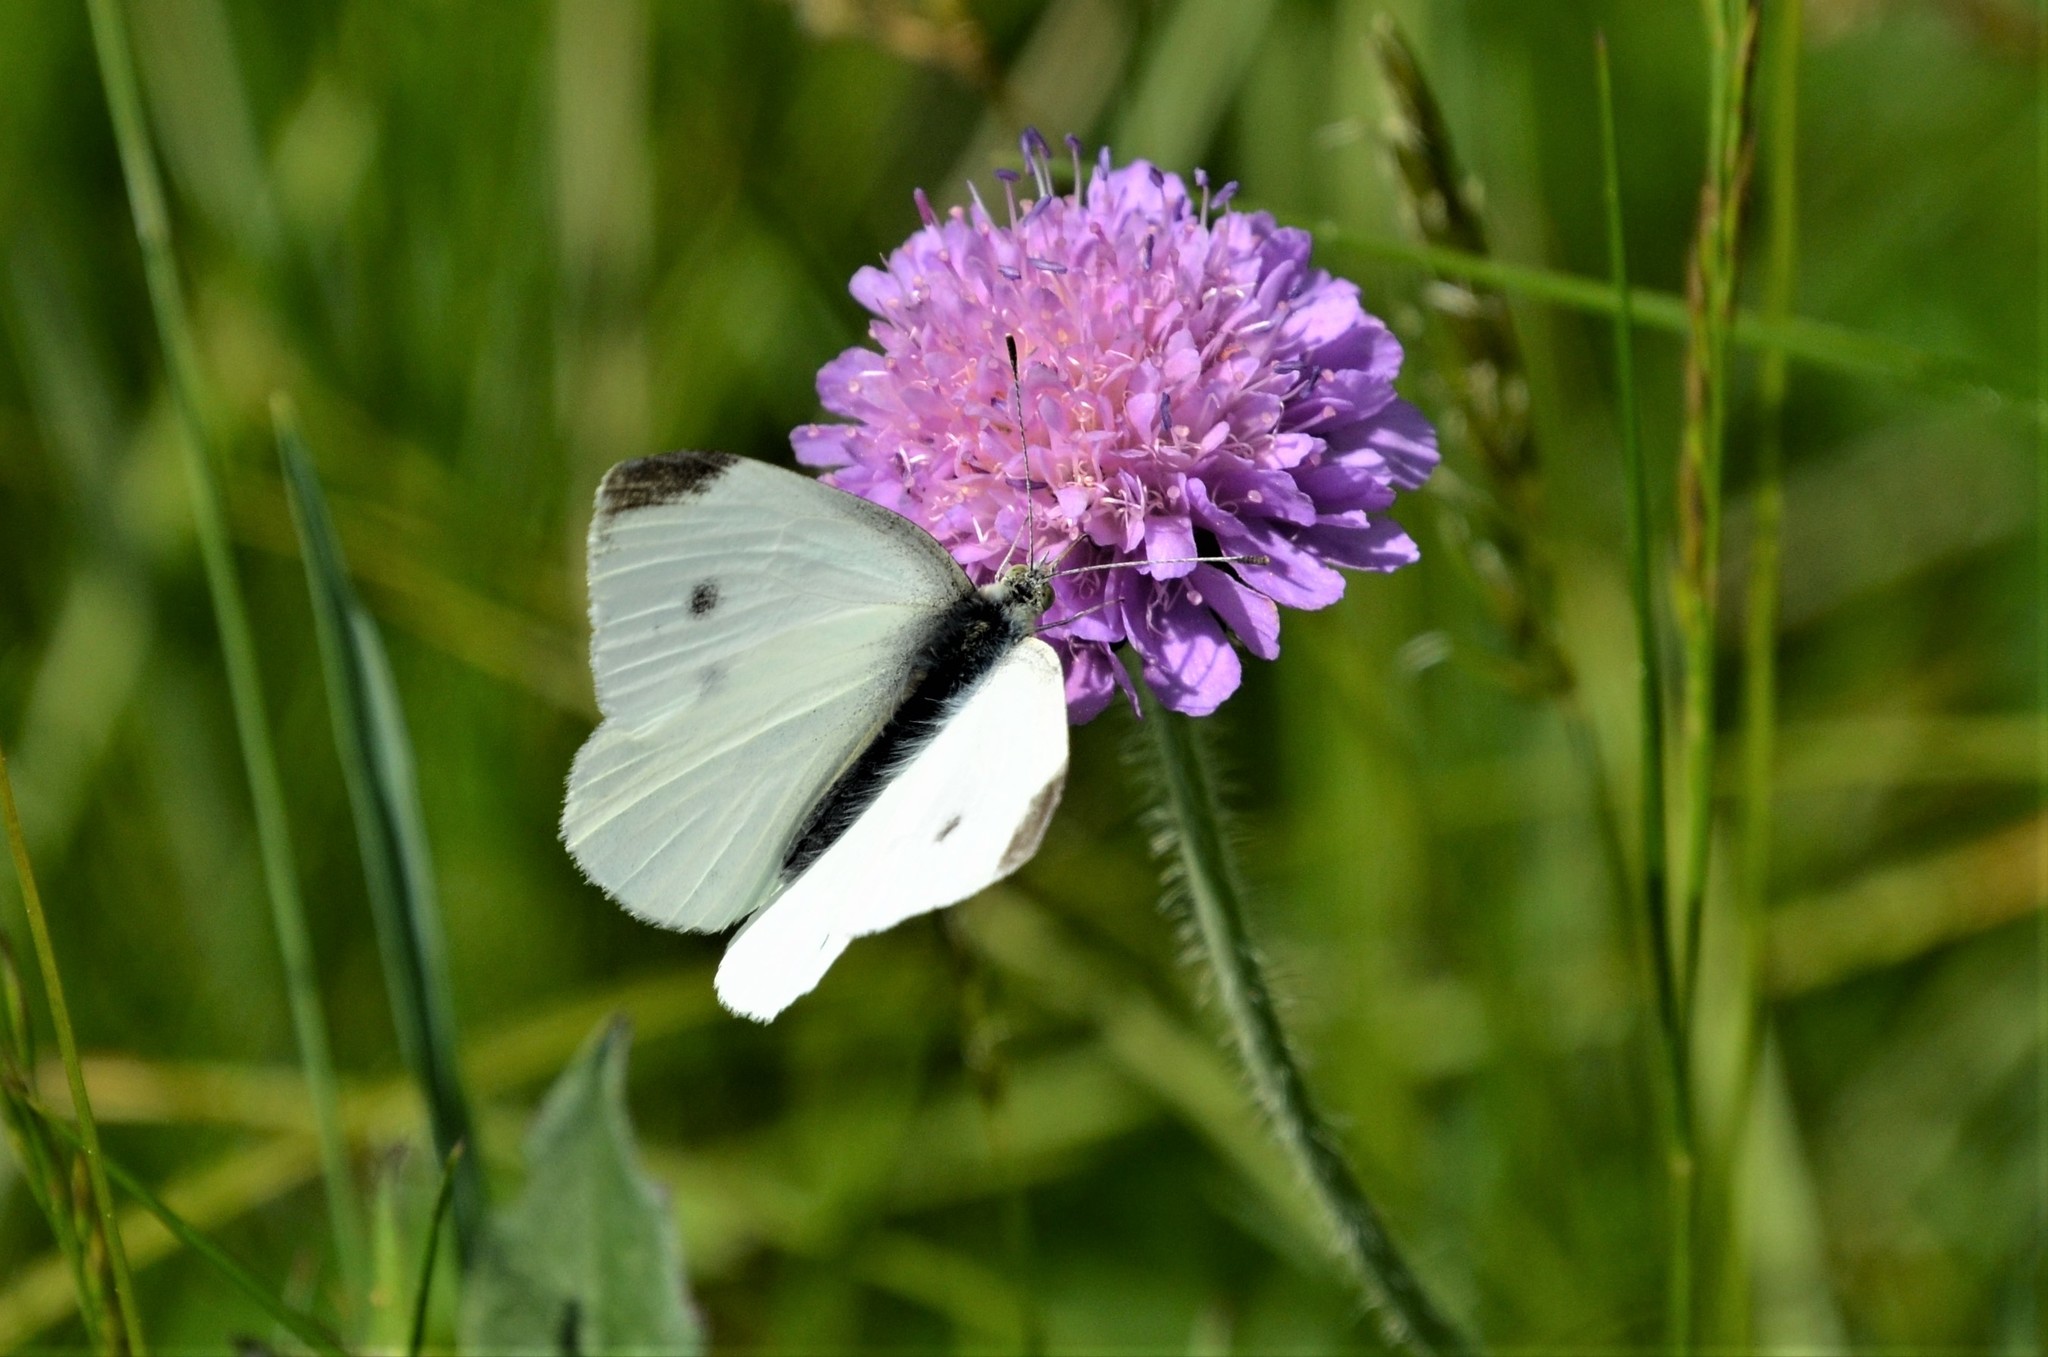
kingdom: Animalia
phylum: Arthropoda
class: Insecta
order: Lepidoptera
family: Pieridae
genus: Pieris
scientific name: Pieris rapae
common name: Small white
